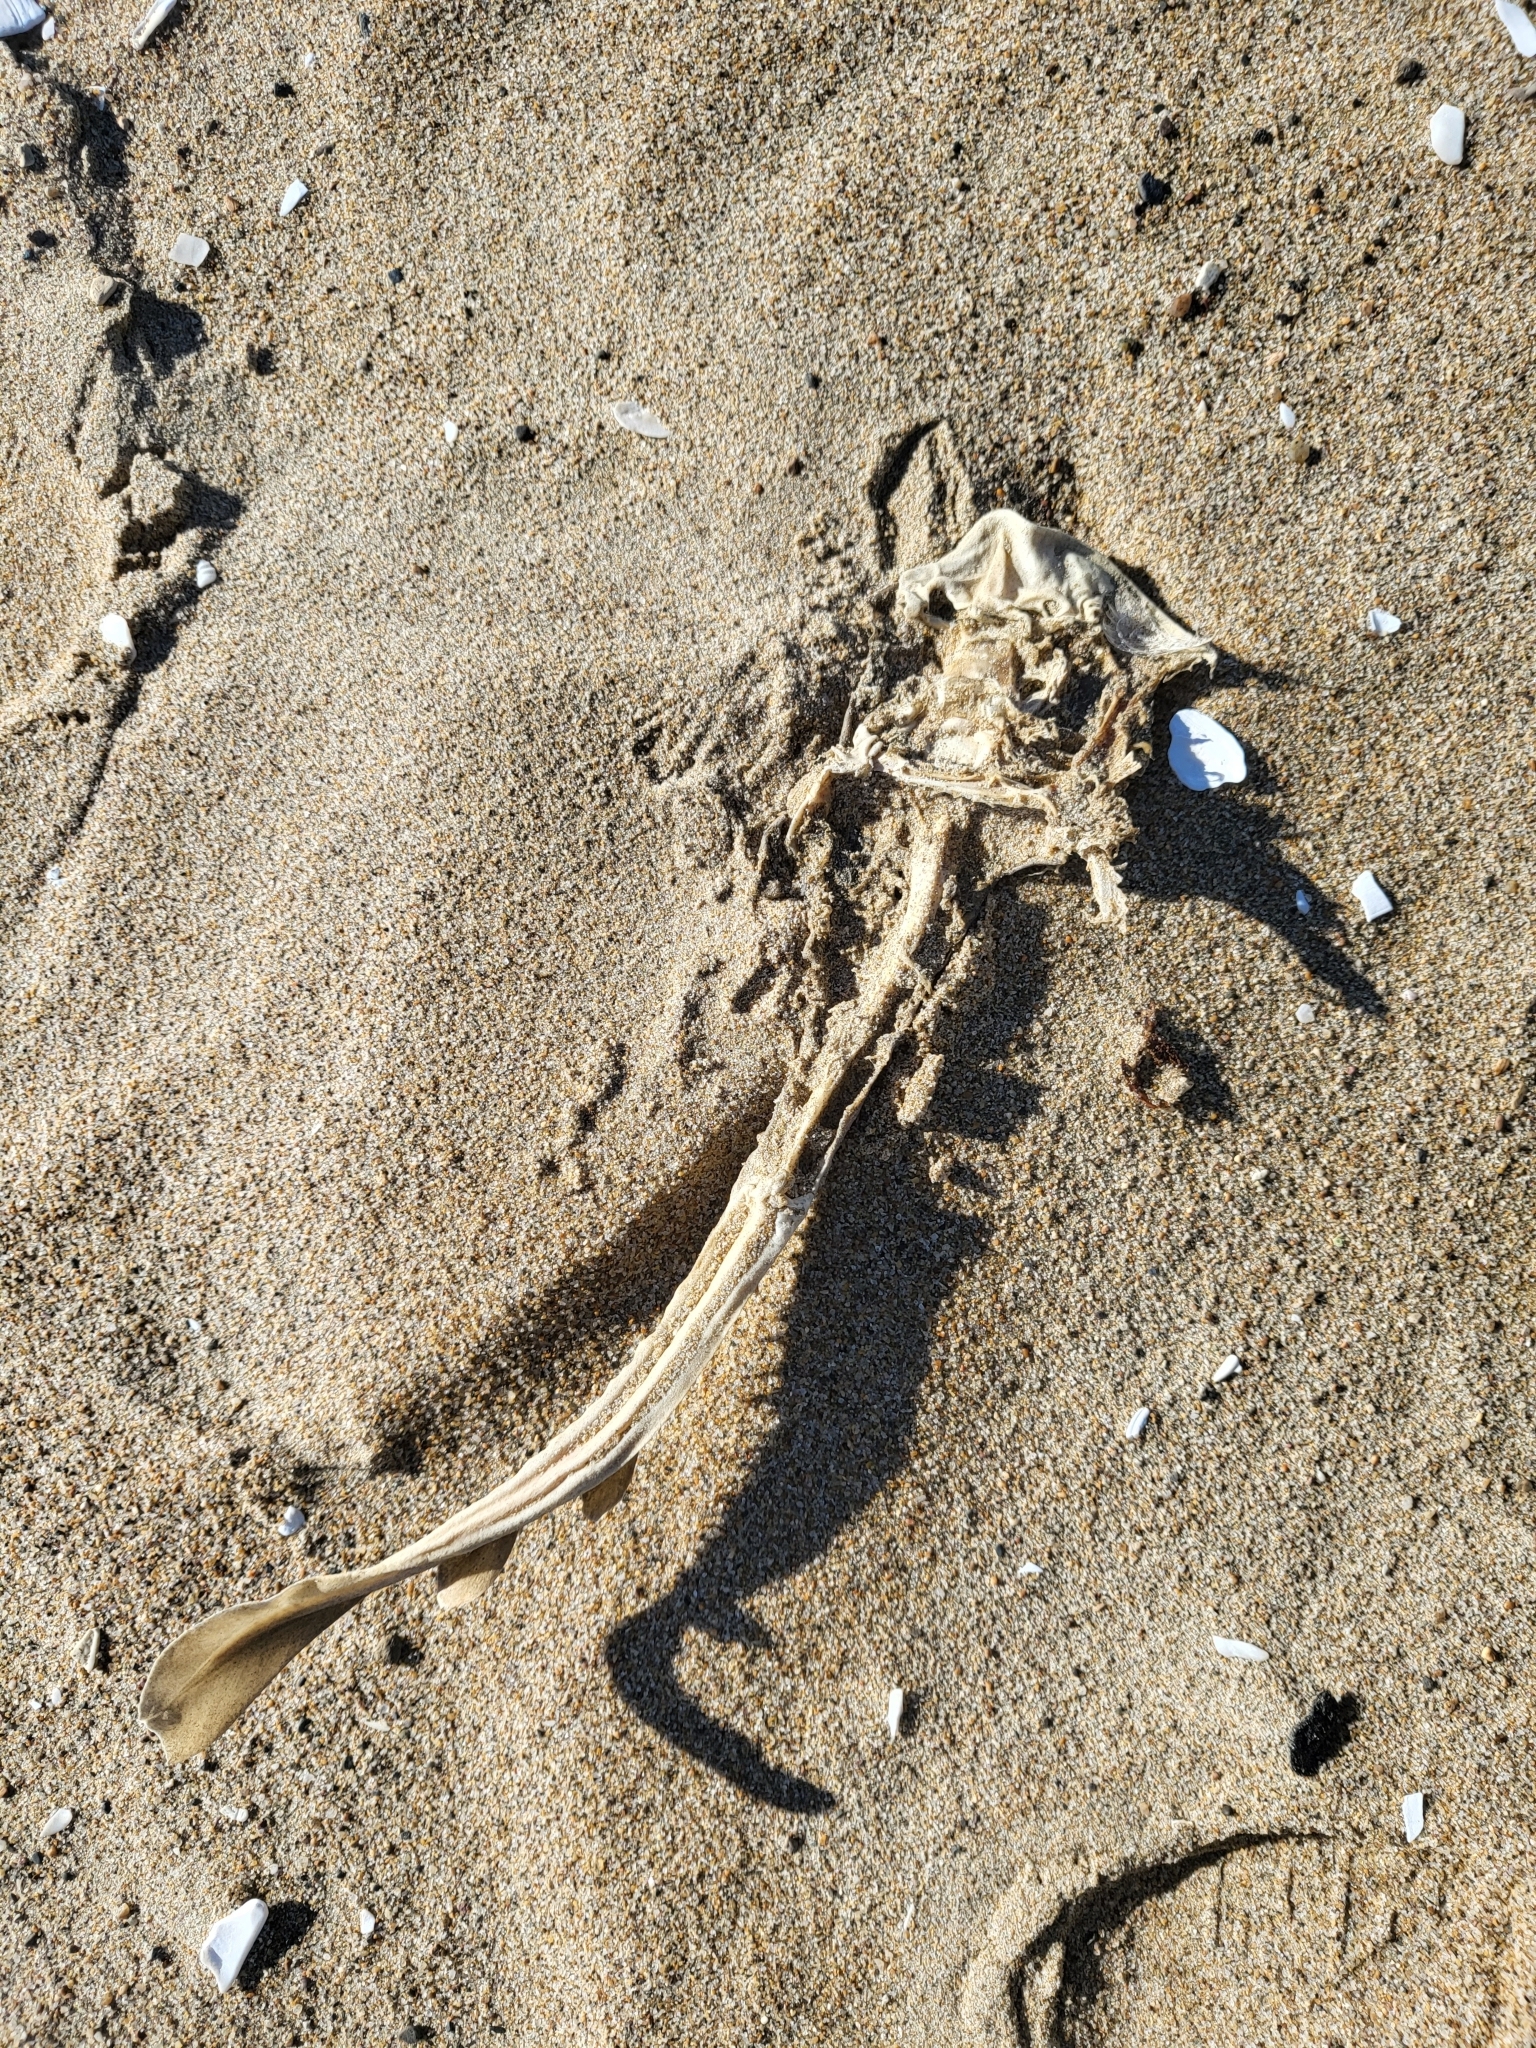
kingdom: Animalia
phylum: Chordata
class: Elasmobranchii
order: Rhinopristiformes
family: Rhinobatidae
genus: Platyrhinoidis
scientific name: Platyrhinoidis triseriata
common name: Thornback
